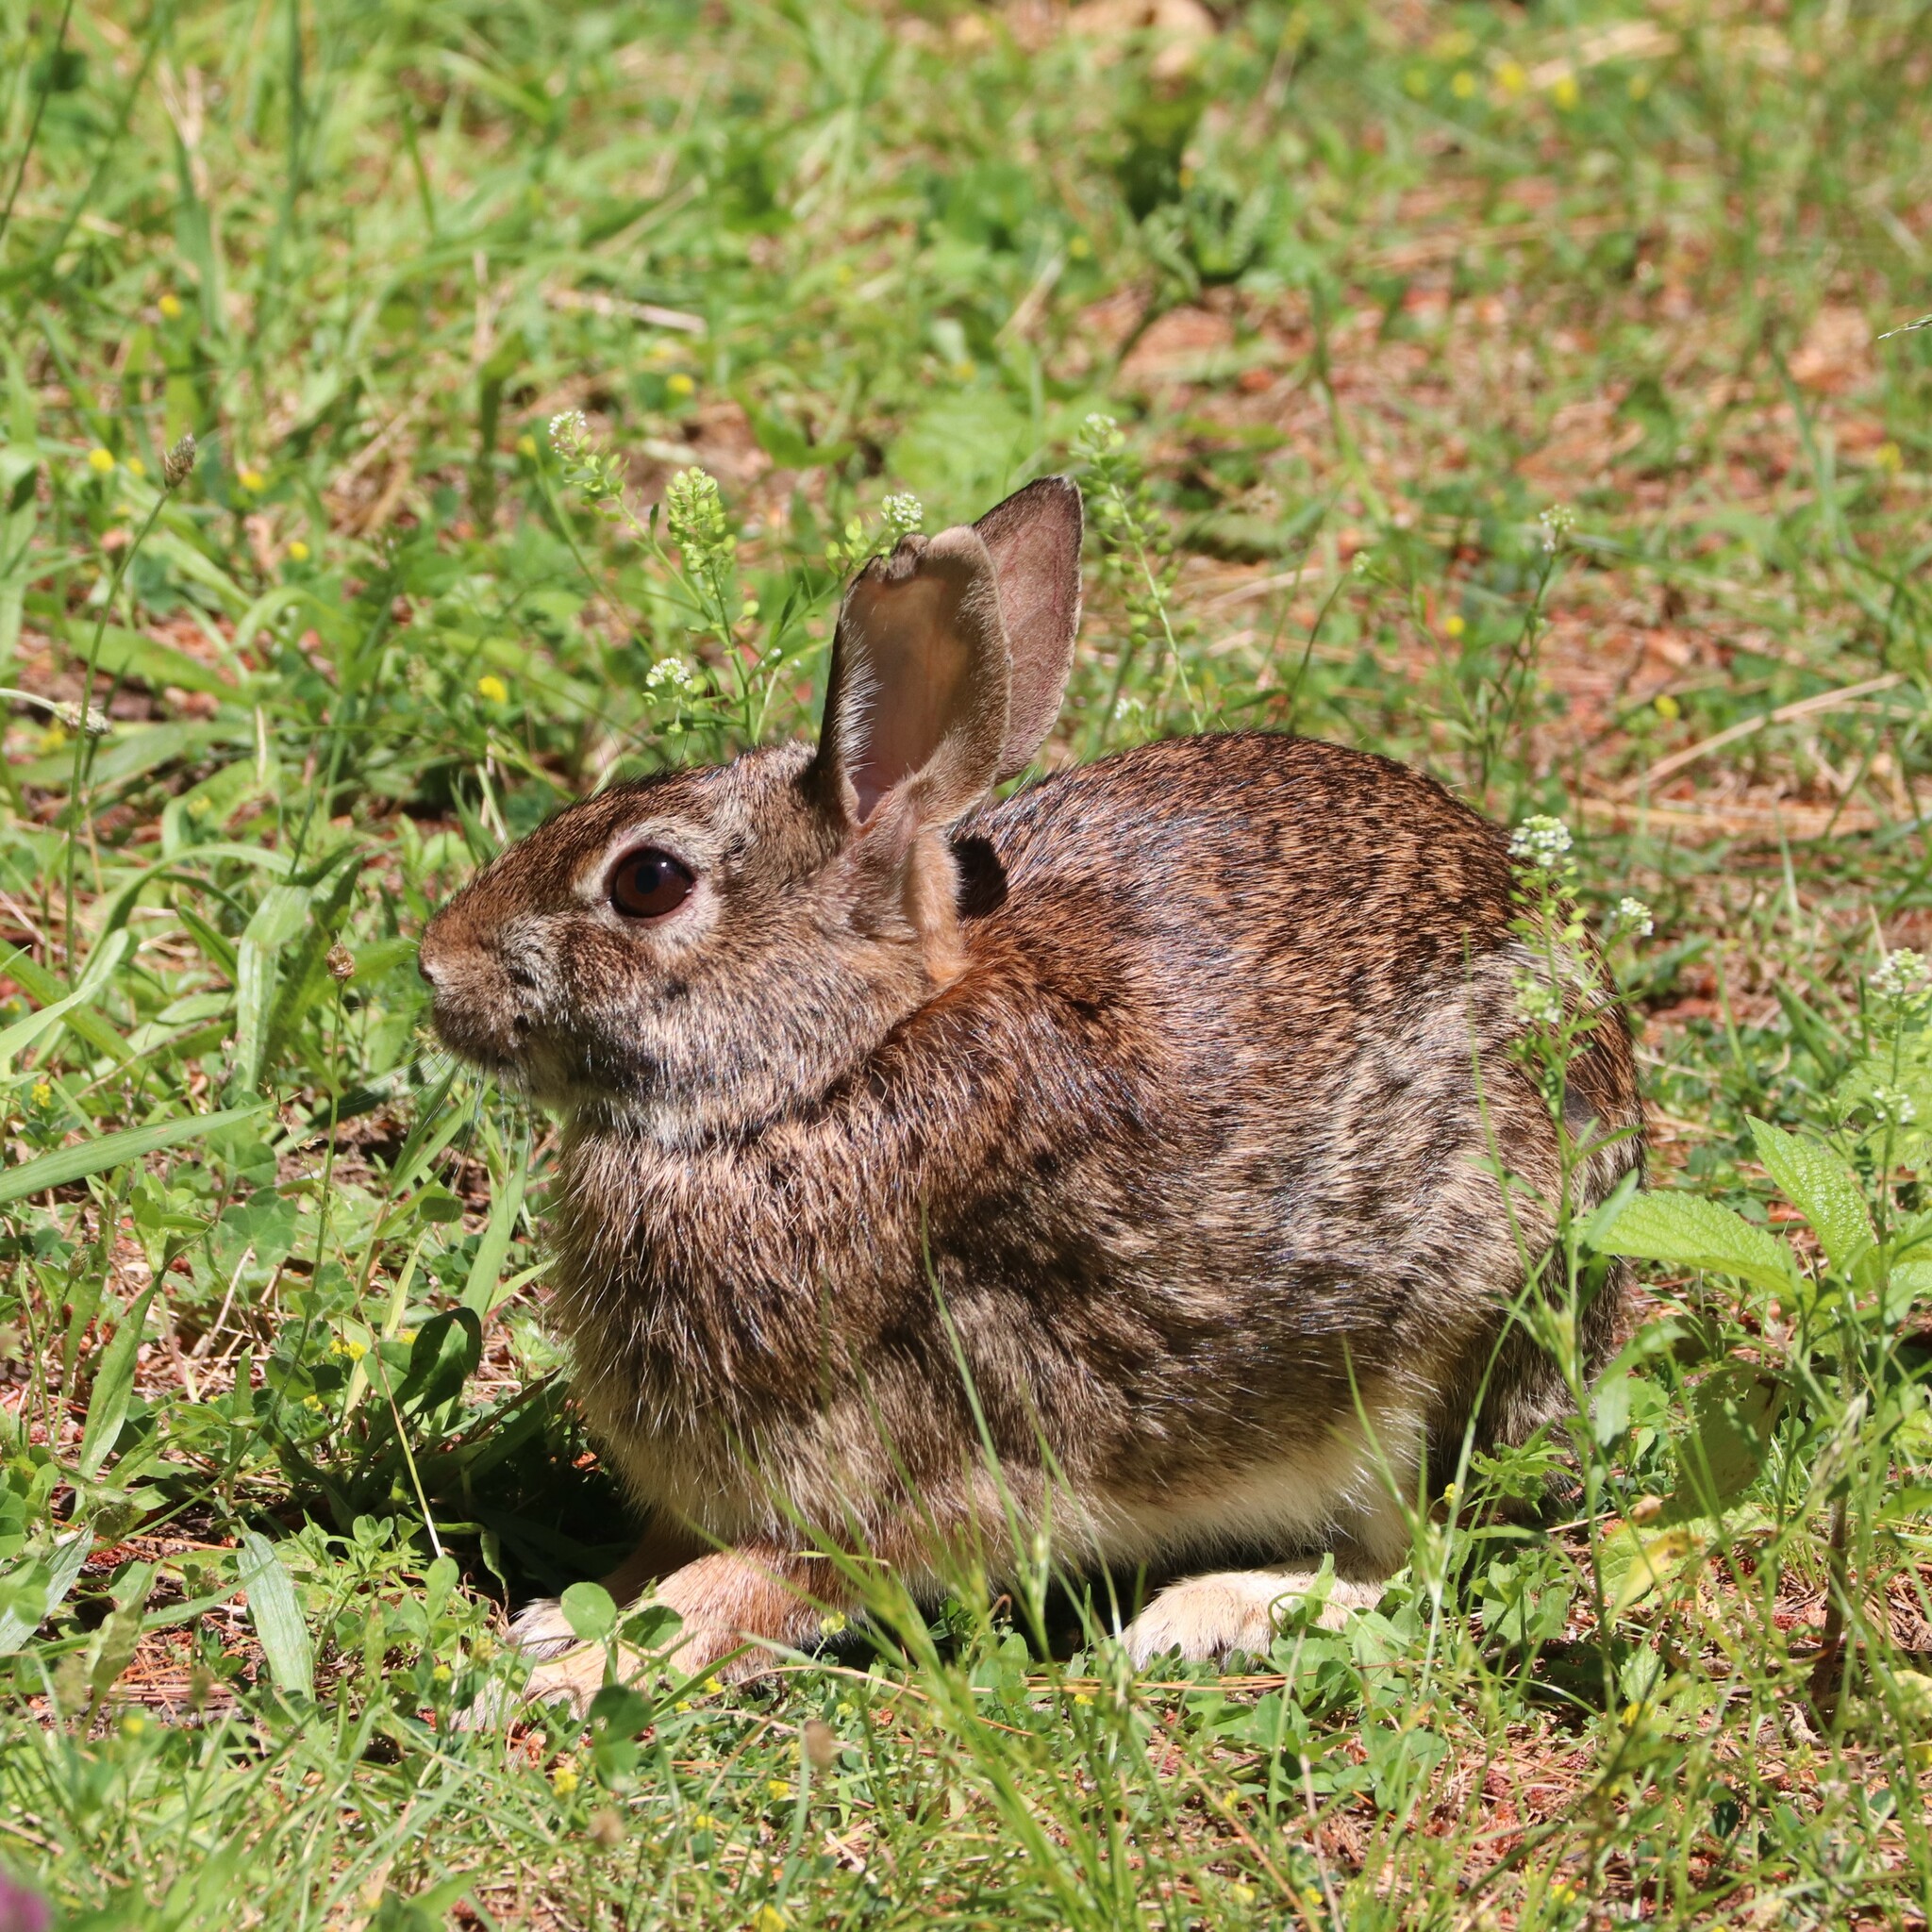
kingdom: Animalia
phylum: Chordata
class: Mammalia
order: Lagomorpha
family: Leporidae
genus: Sylvilagus
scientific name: Sylvilagus floridanus
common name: Eastern cottontail
